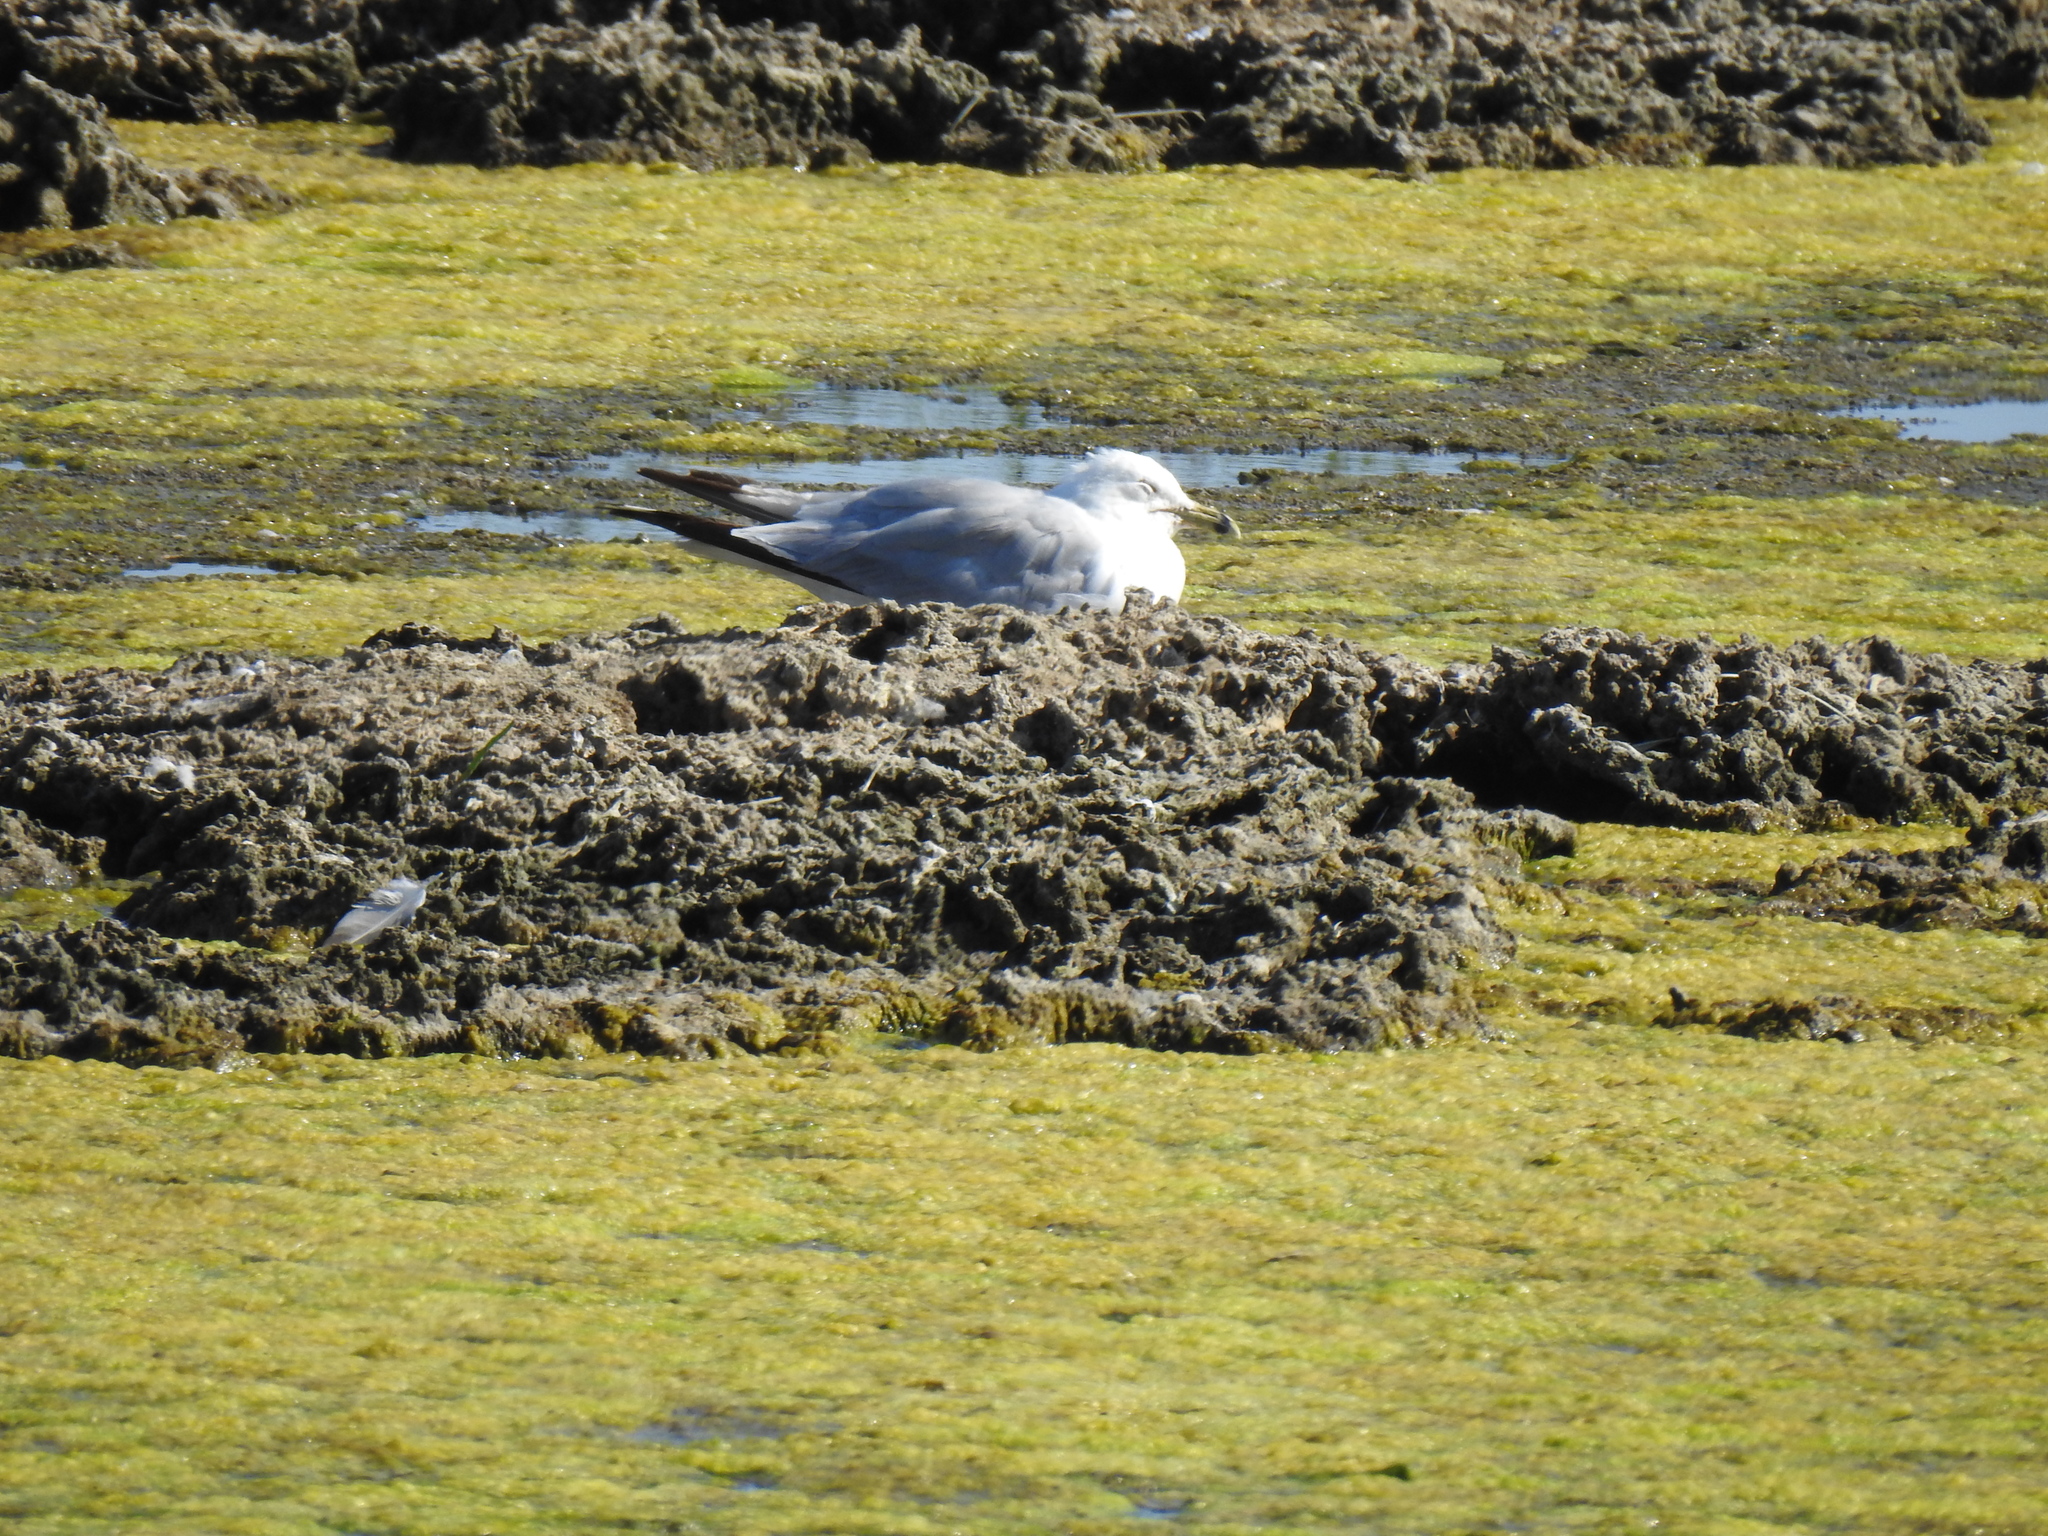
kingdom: Animalia
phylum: Chordata
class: Aves
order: Charadriiformes
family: Laridae
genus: Larus
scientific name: Larus delawarensis
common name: Ring-billed gull
